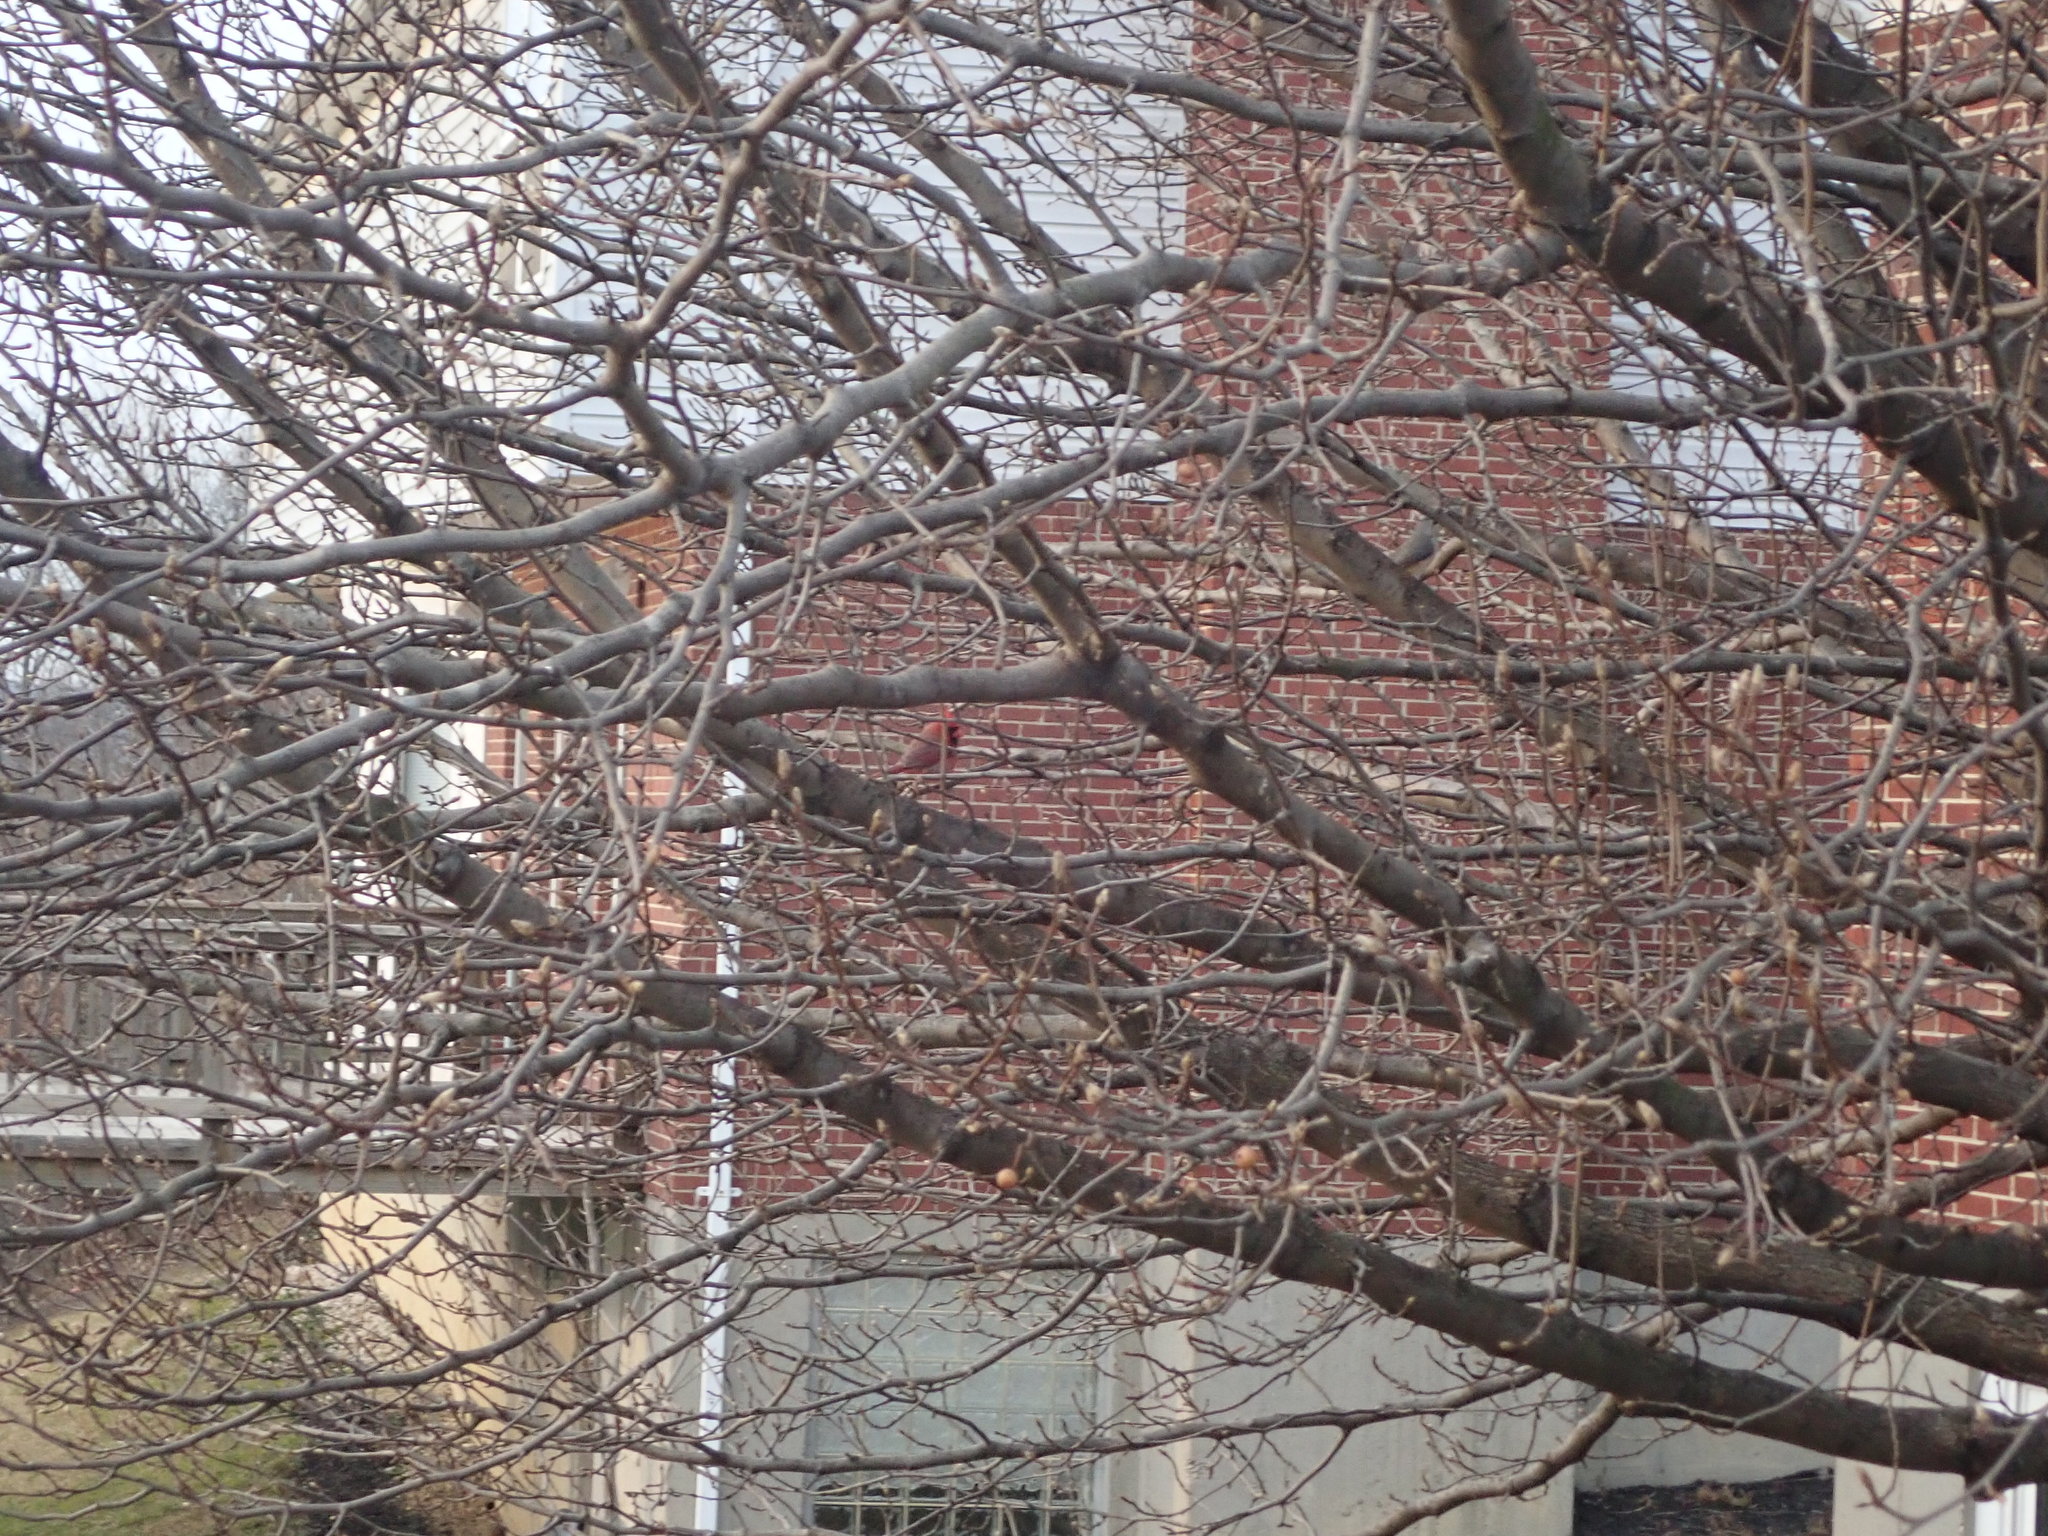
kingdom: Animalia
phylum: Chordata
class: Aves
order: Passeriformes
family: Cardinalidae
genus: Cardinalis
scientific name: Cardinalis cardinalis
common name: Northern cardinal
